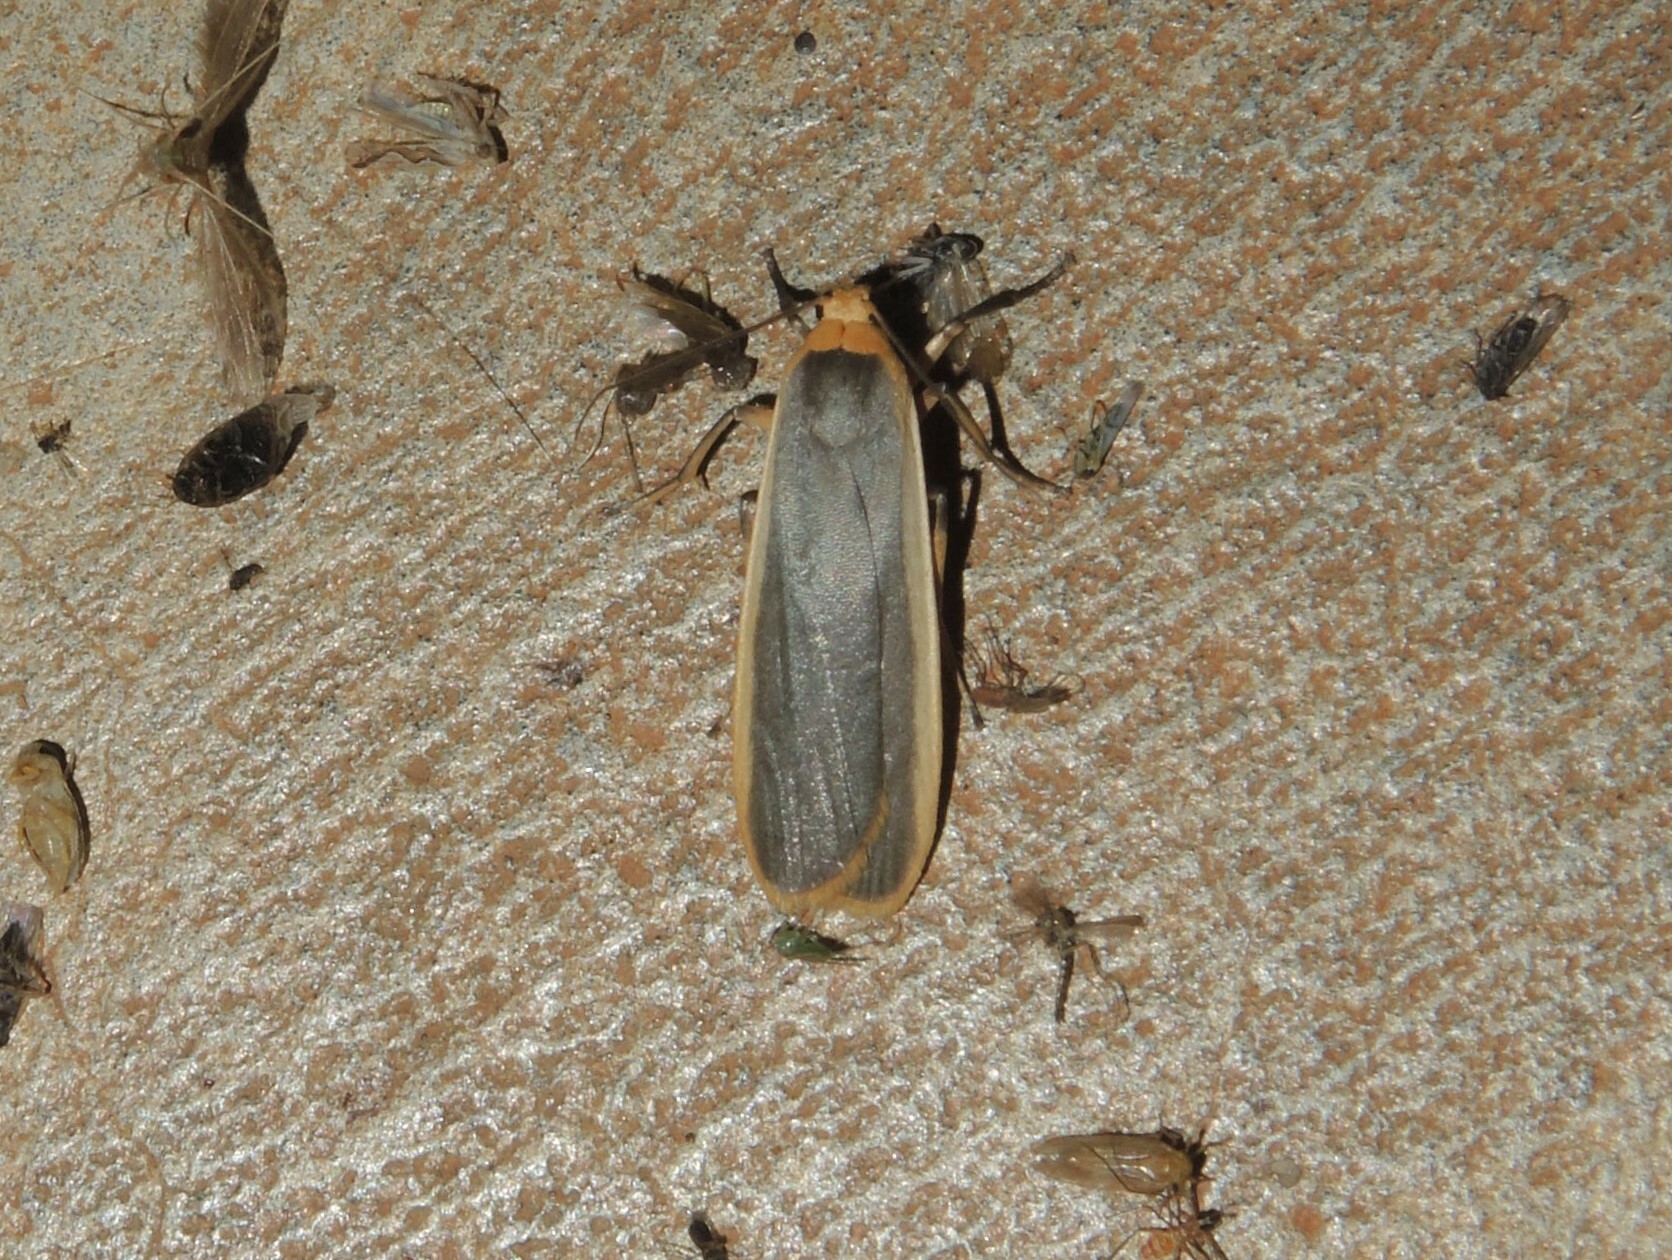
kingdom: Animalia
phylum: Arthropoda
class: Insecta
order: Lepidoptera
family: Erebidae
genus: Brunia
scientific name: Brunia antica
